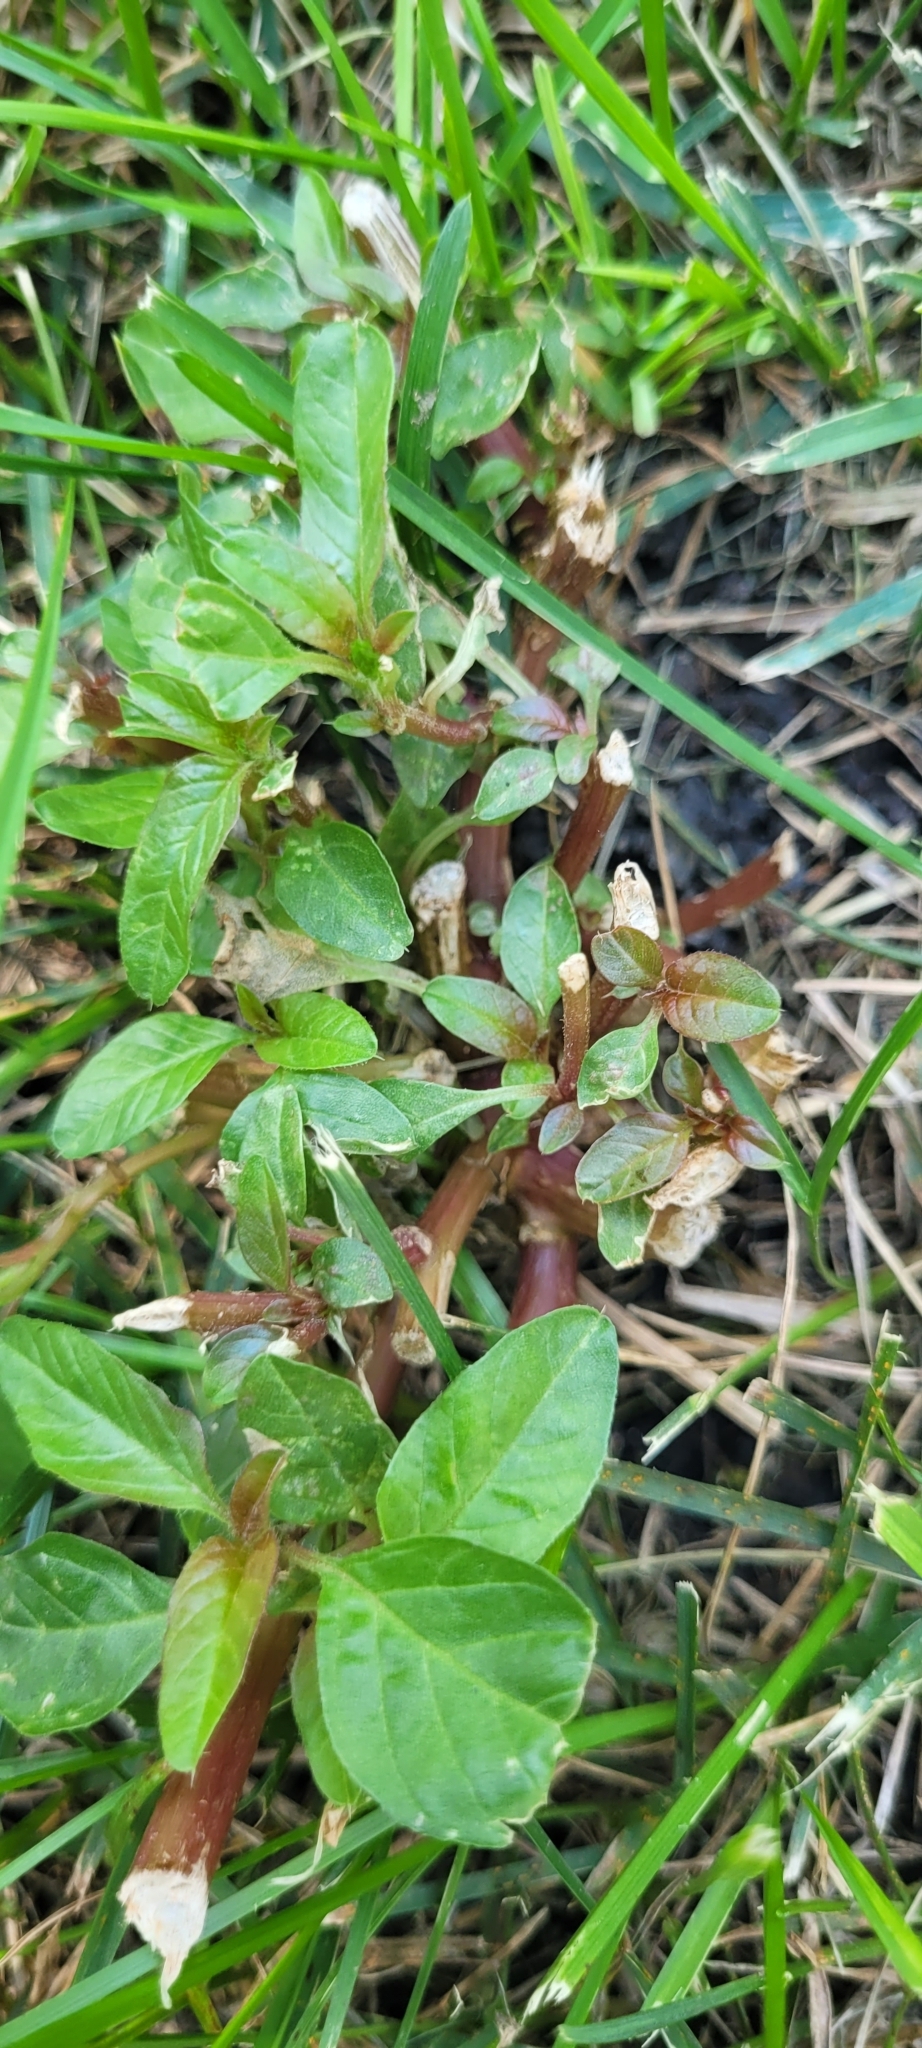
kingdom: Plantae
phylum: Tracheophyta
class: Magnoliopsida
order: Caryophyllales
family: Amaranthaceae
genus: Amaranthus
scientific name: Amaranthus tuberculatus
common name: Rough-fruit amaranth
